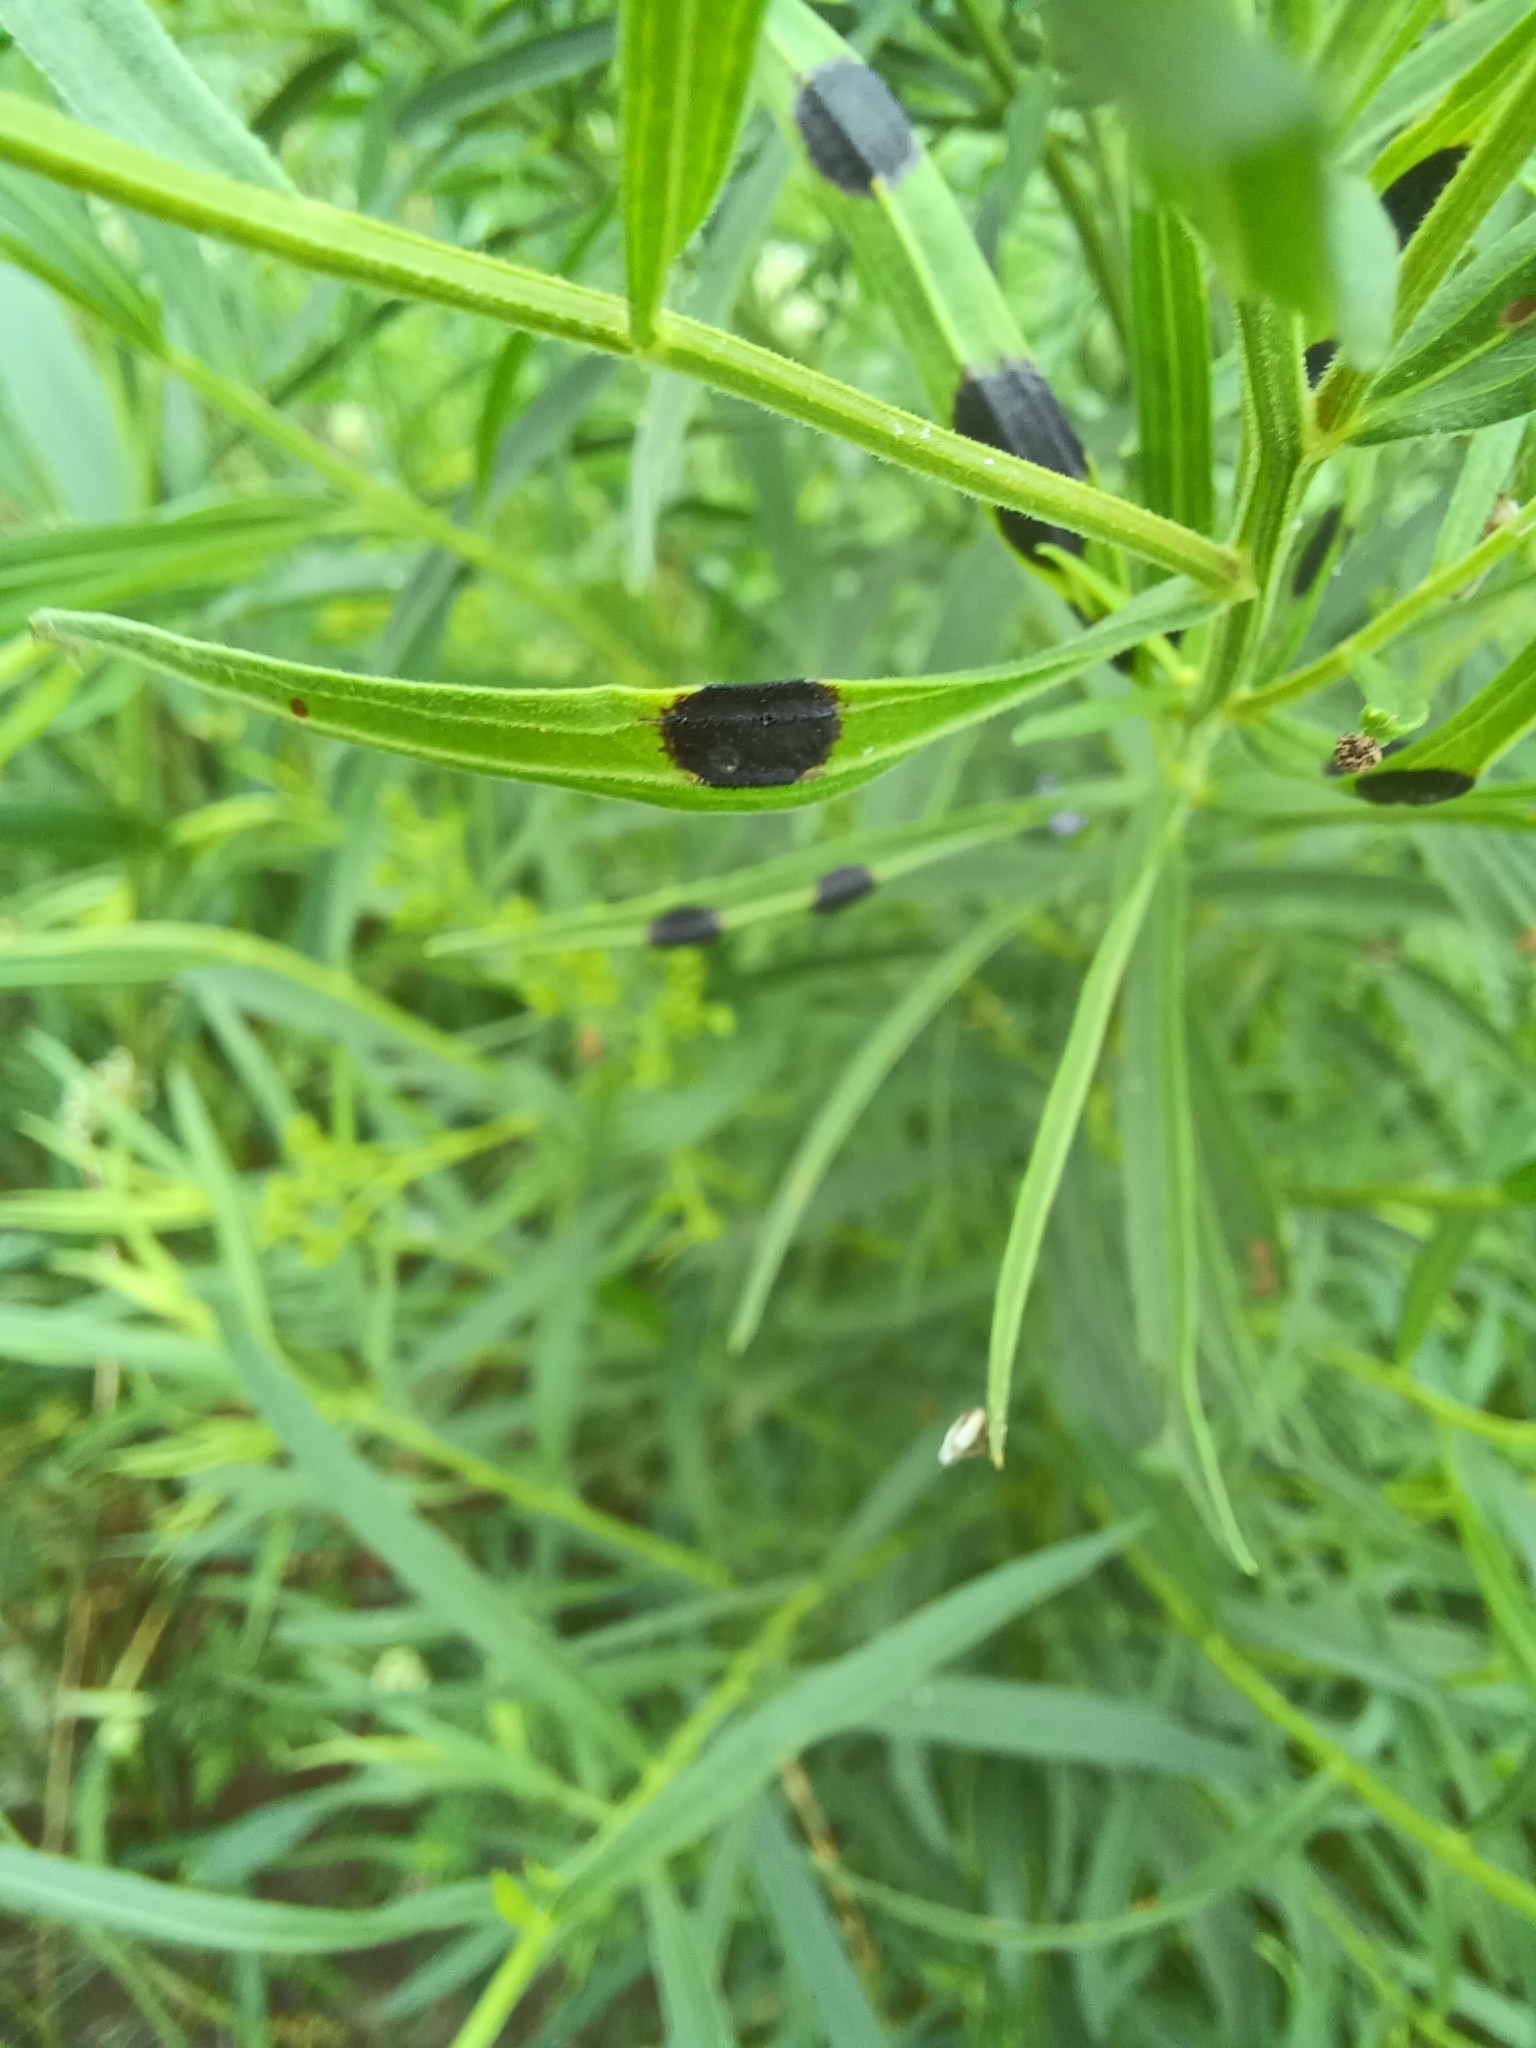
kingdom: Animalia
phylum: Arthropoda
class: Insecta
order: Diptera
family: Cecidomyiidae
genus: Asteromyia
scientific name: Asteromyia euthamiae
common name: Euthamia leaf gall midge
